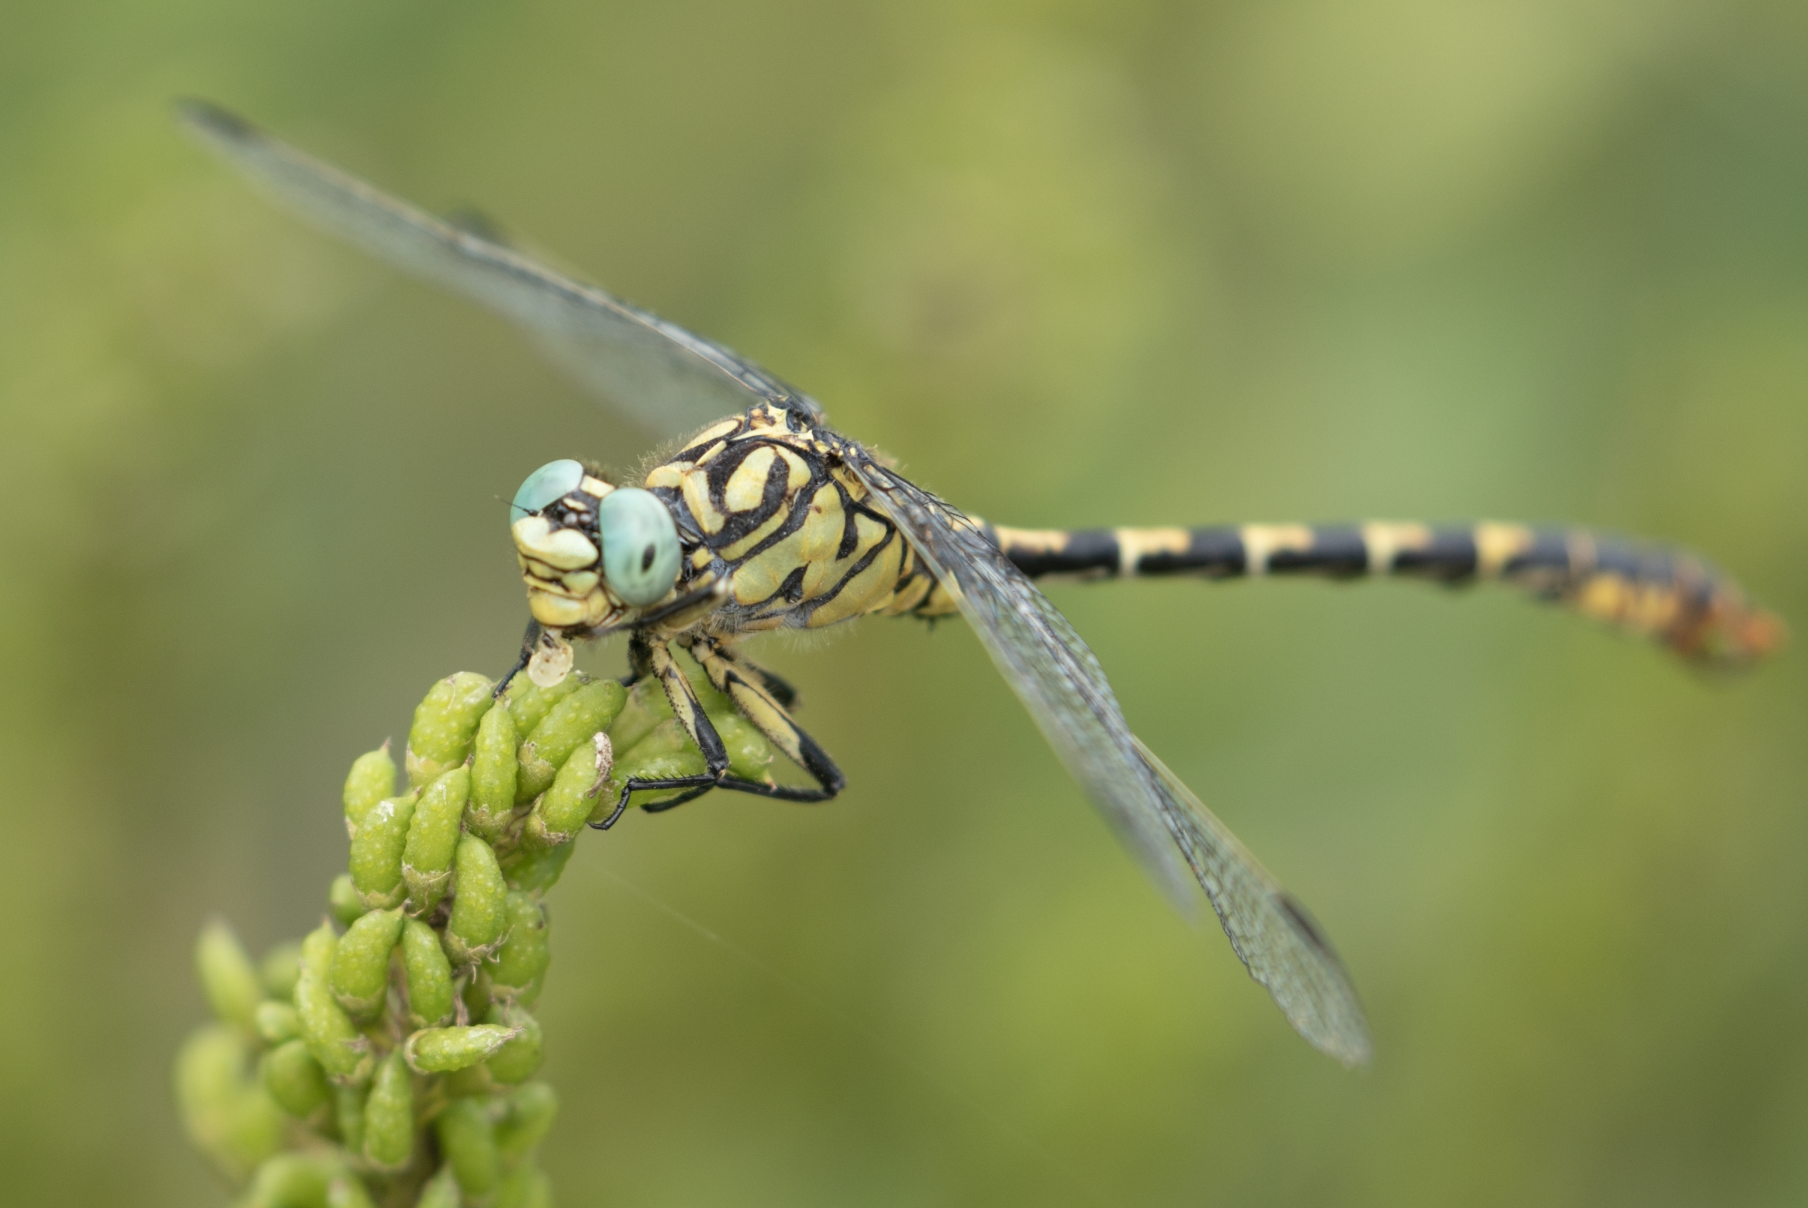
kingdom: Animalia
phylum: Arthropoda
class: Insecta
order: Odonata
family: Gomphidae
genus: Onychogomphus
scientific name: Onychogomphus forcipatus
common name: Small pincertail
